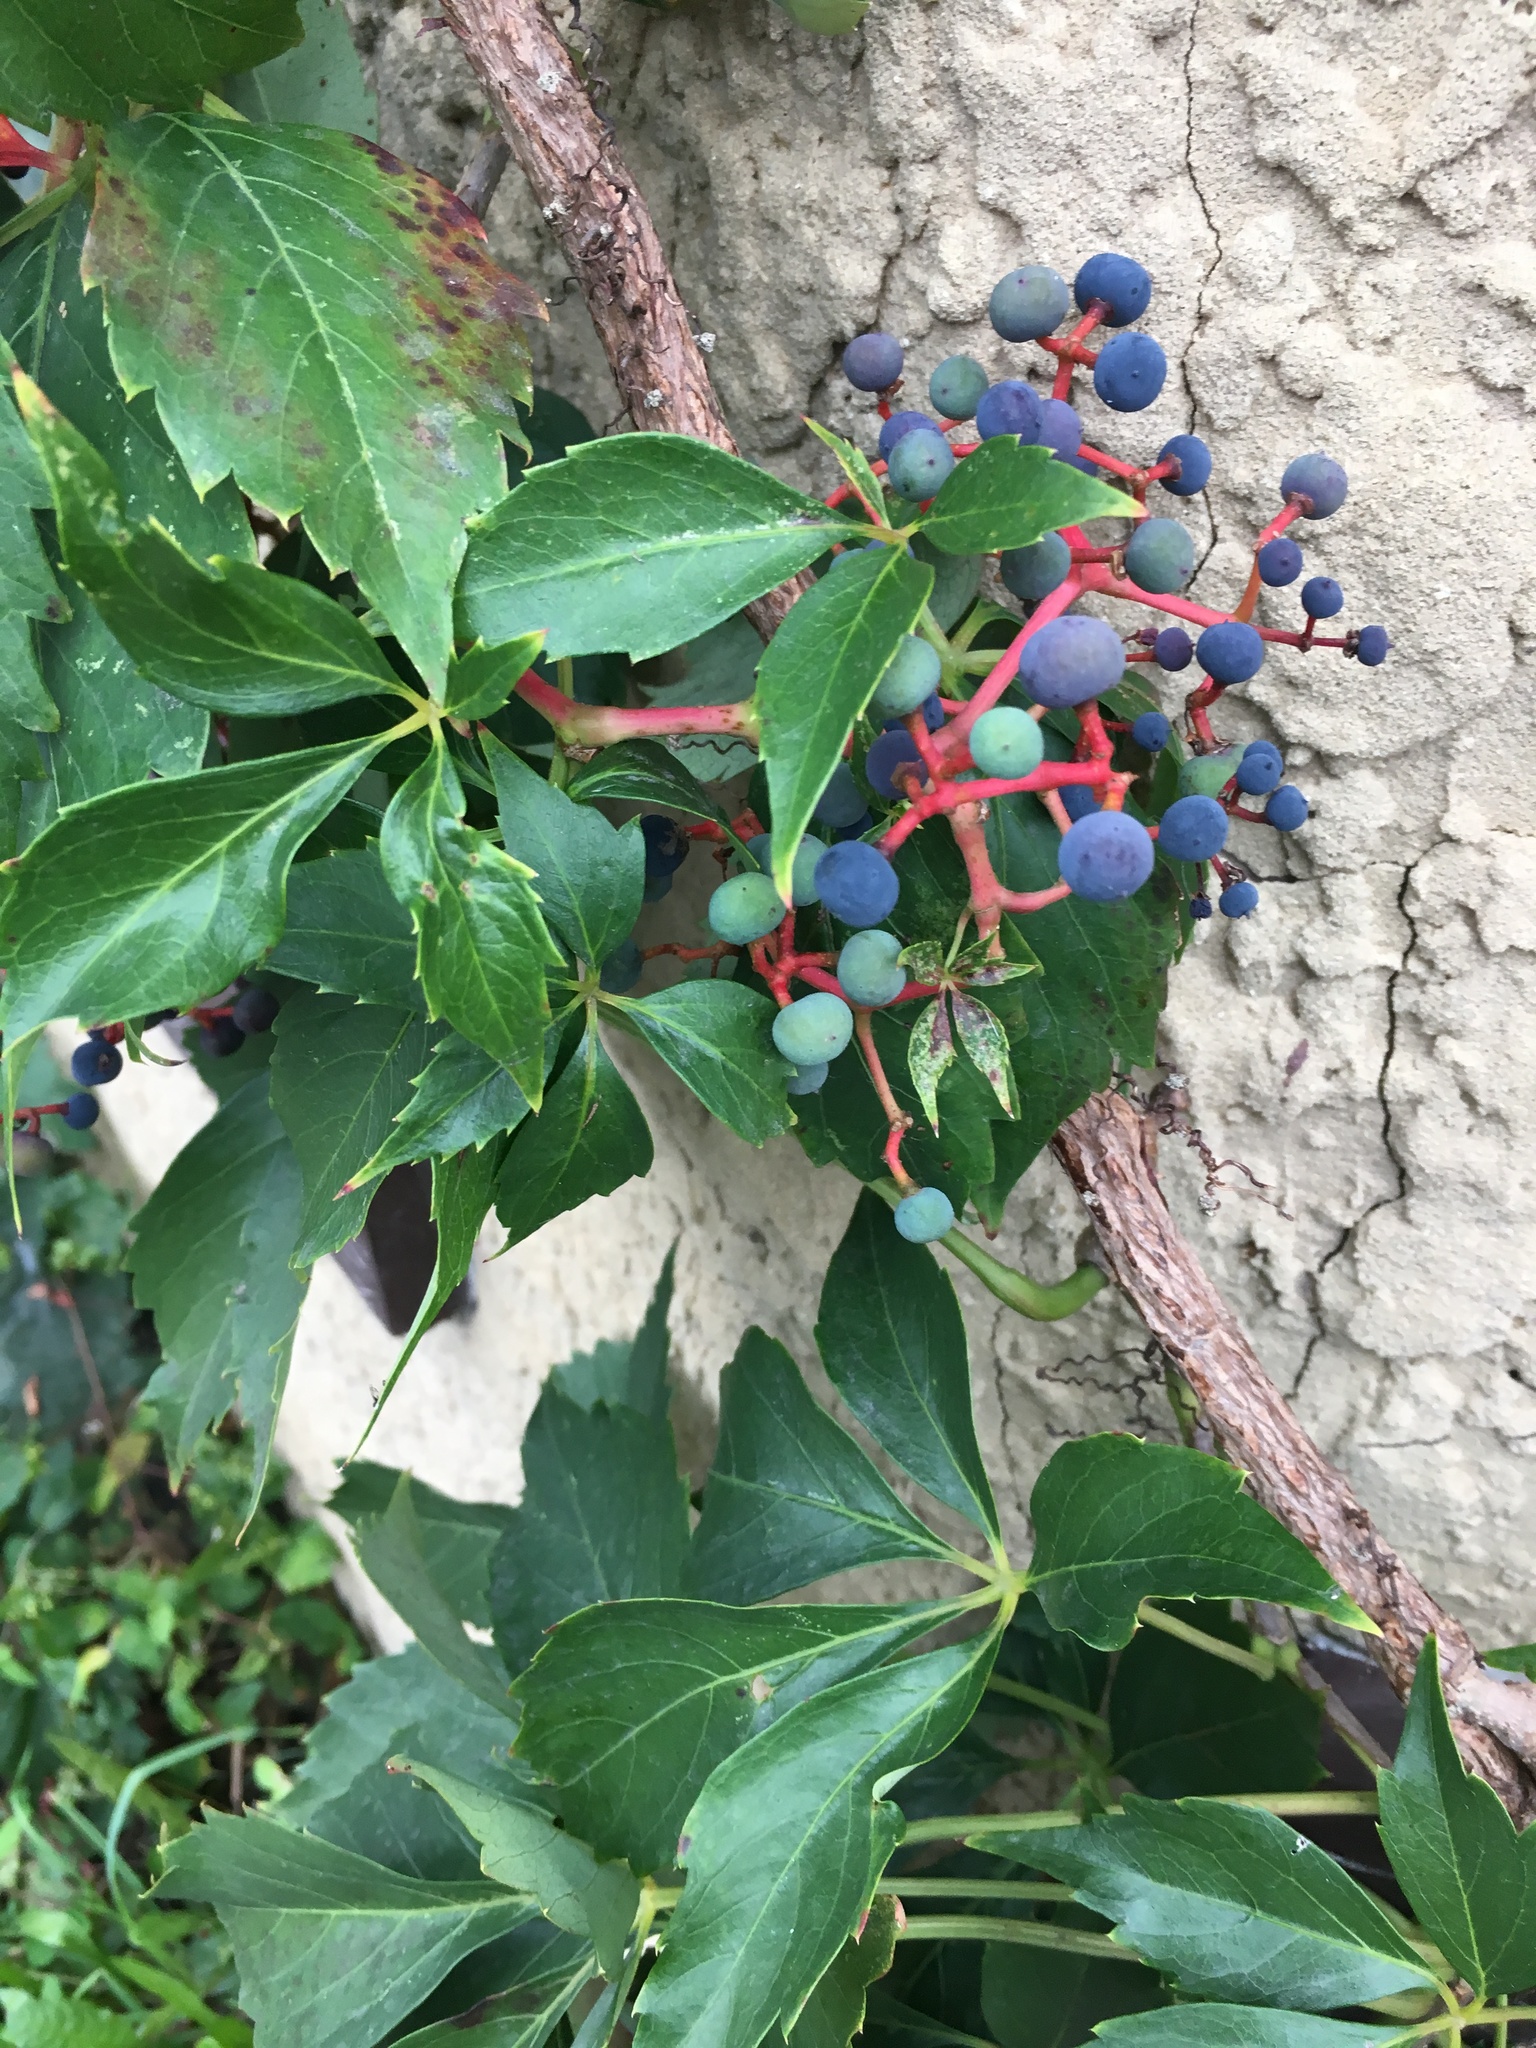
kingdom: Plantae
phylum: Tracheophyta
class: Magnoliopsida
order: Vitales
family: Vitaceae
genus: Parthenocissus
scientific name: Parthenocissus quinquefolia
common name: Virginia-creeper
